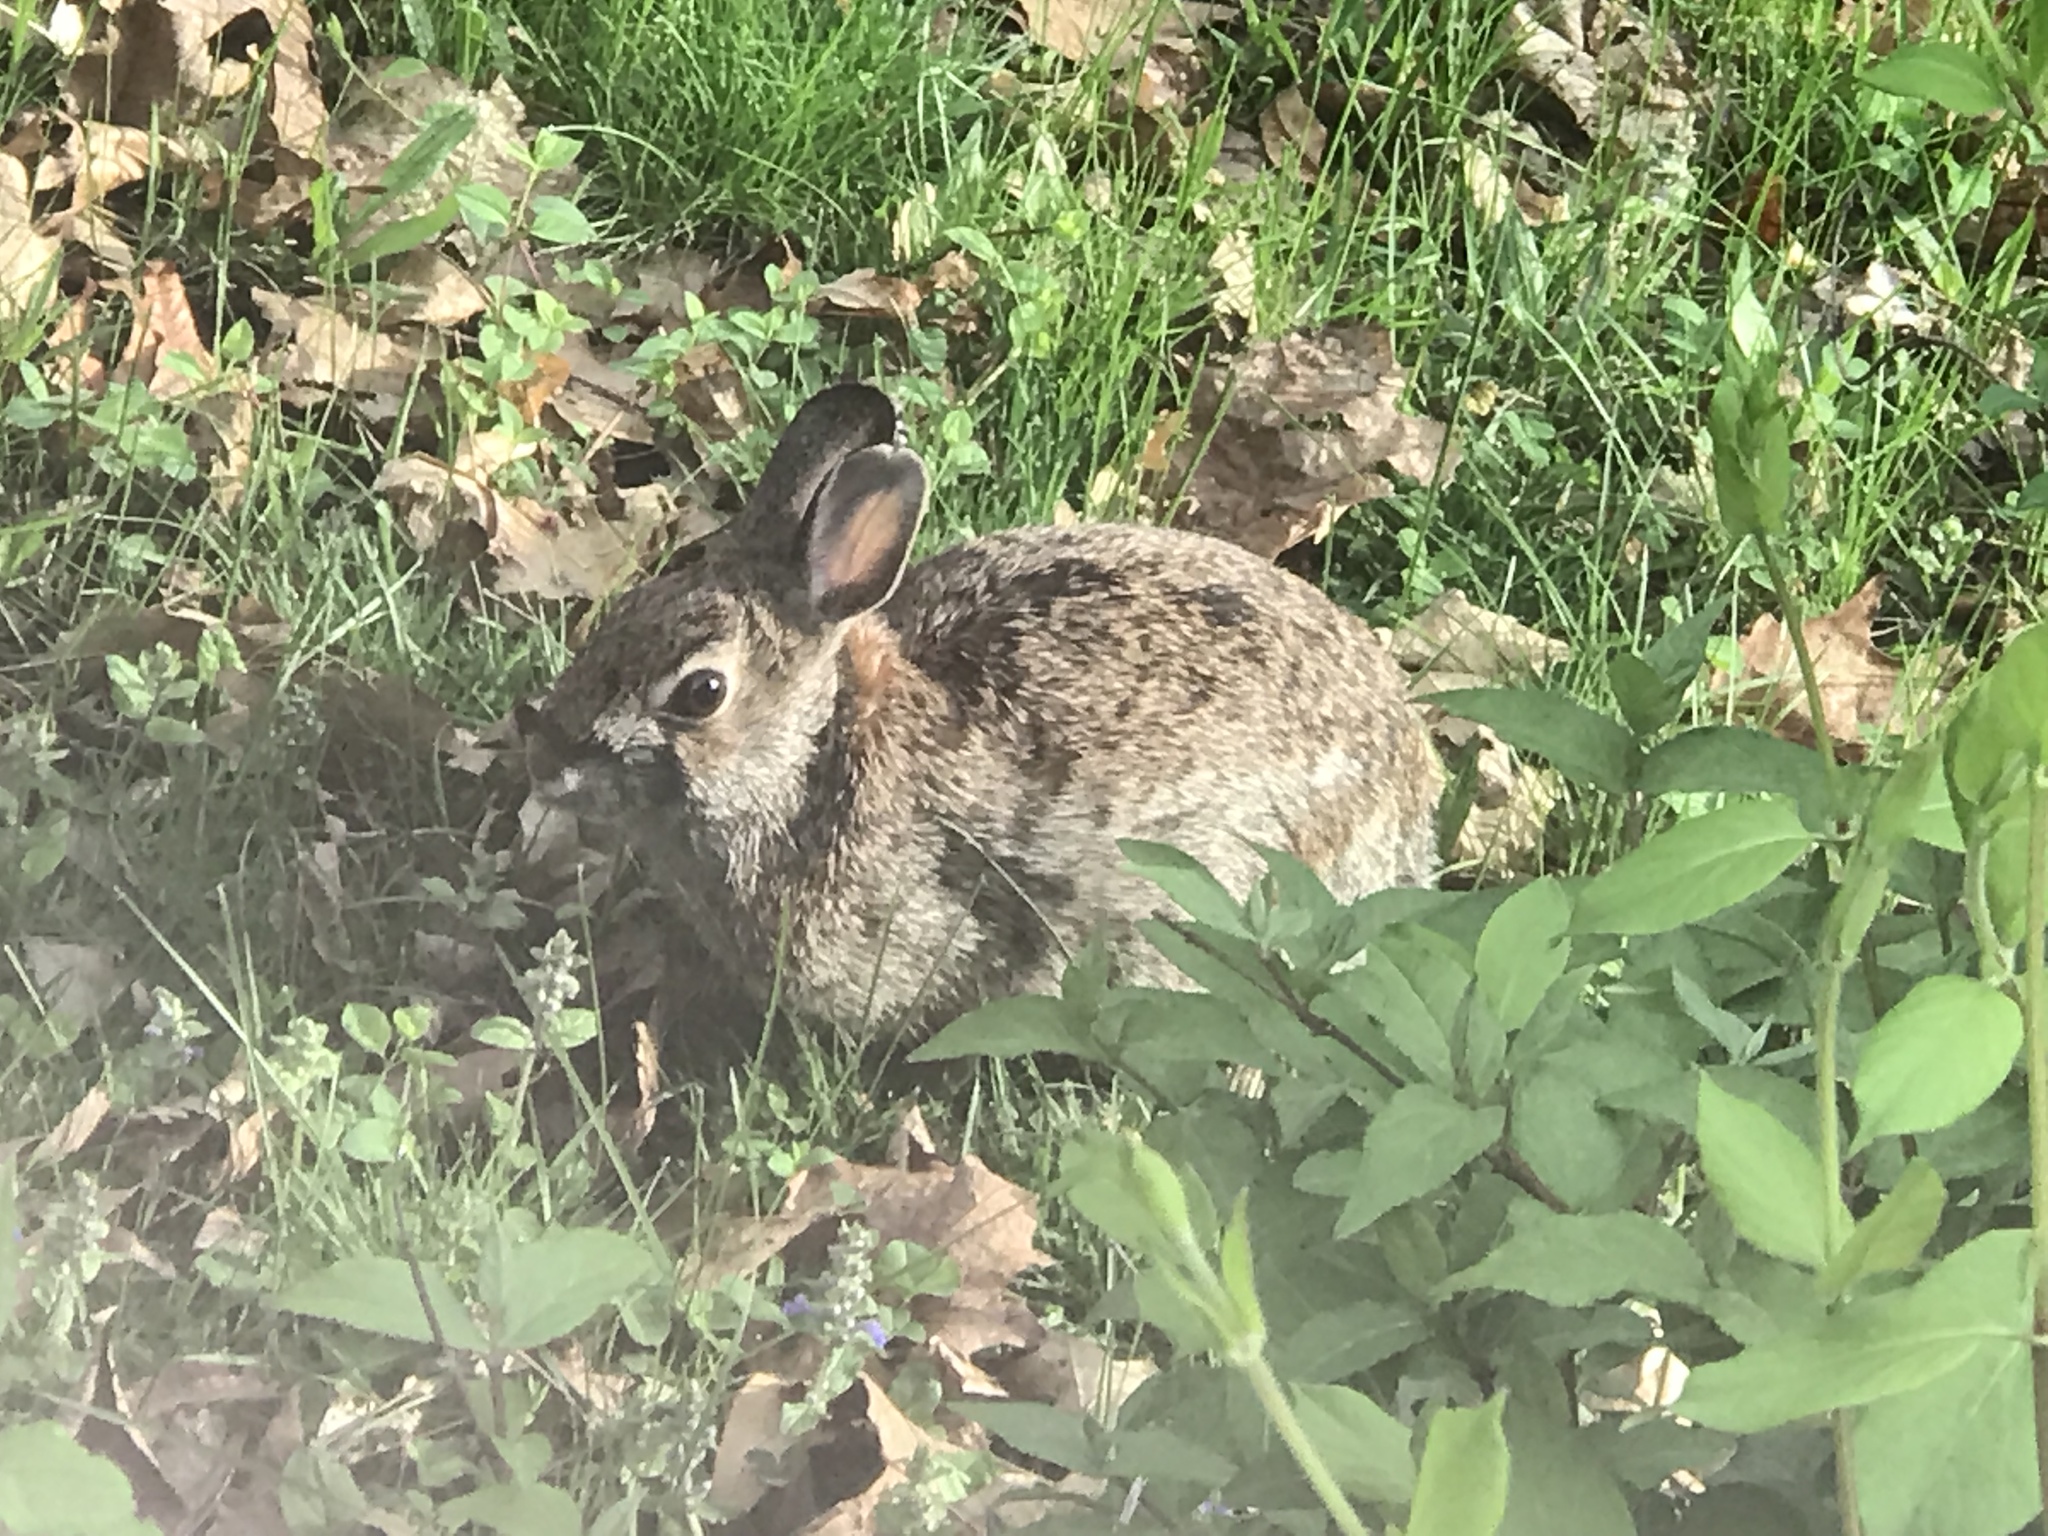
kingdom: Animalia
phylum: Chordata
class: Mammalia
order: Lagomorpha
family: Leporidae
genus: Sylvilagus
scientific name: Sylvilagus floridanus
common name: Eastern cottontail
